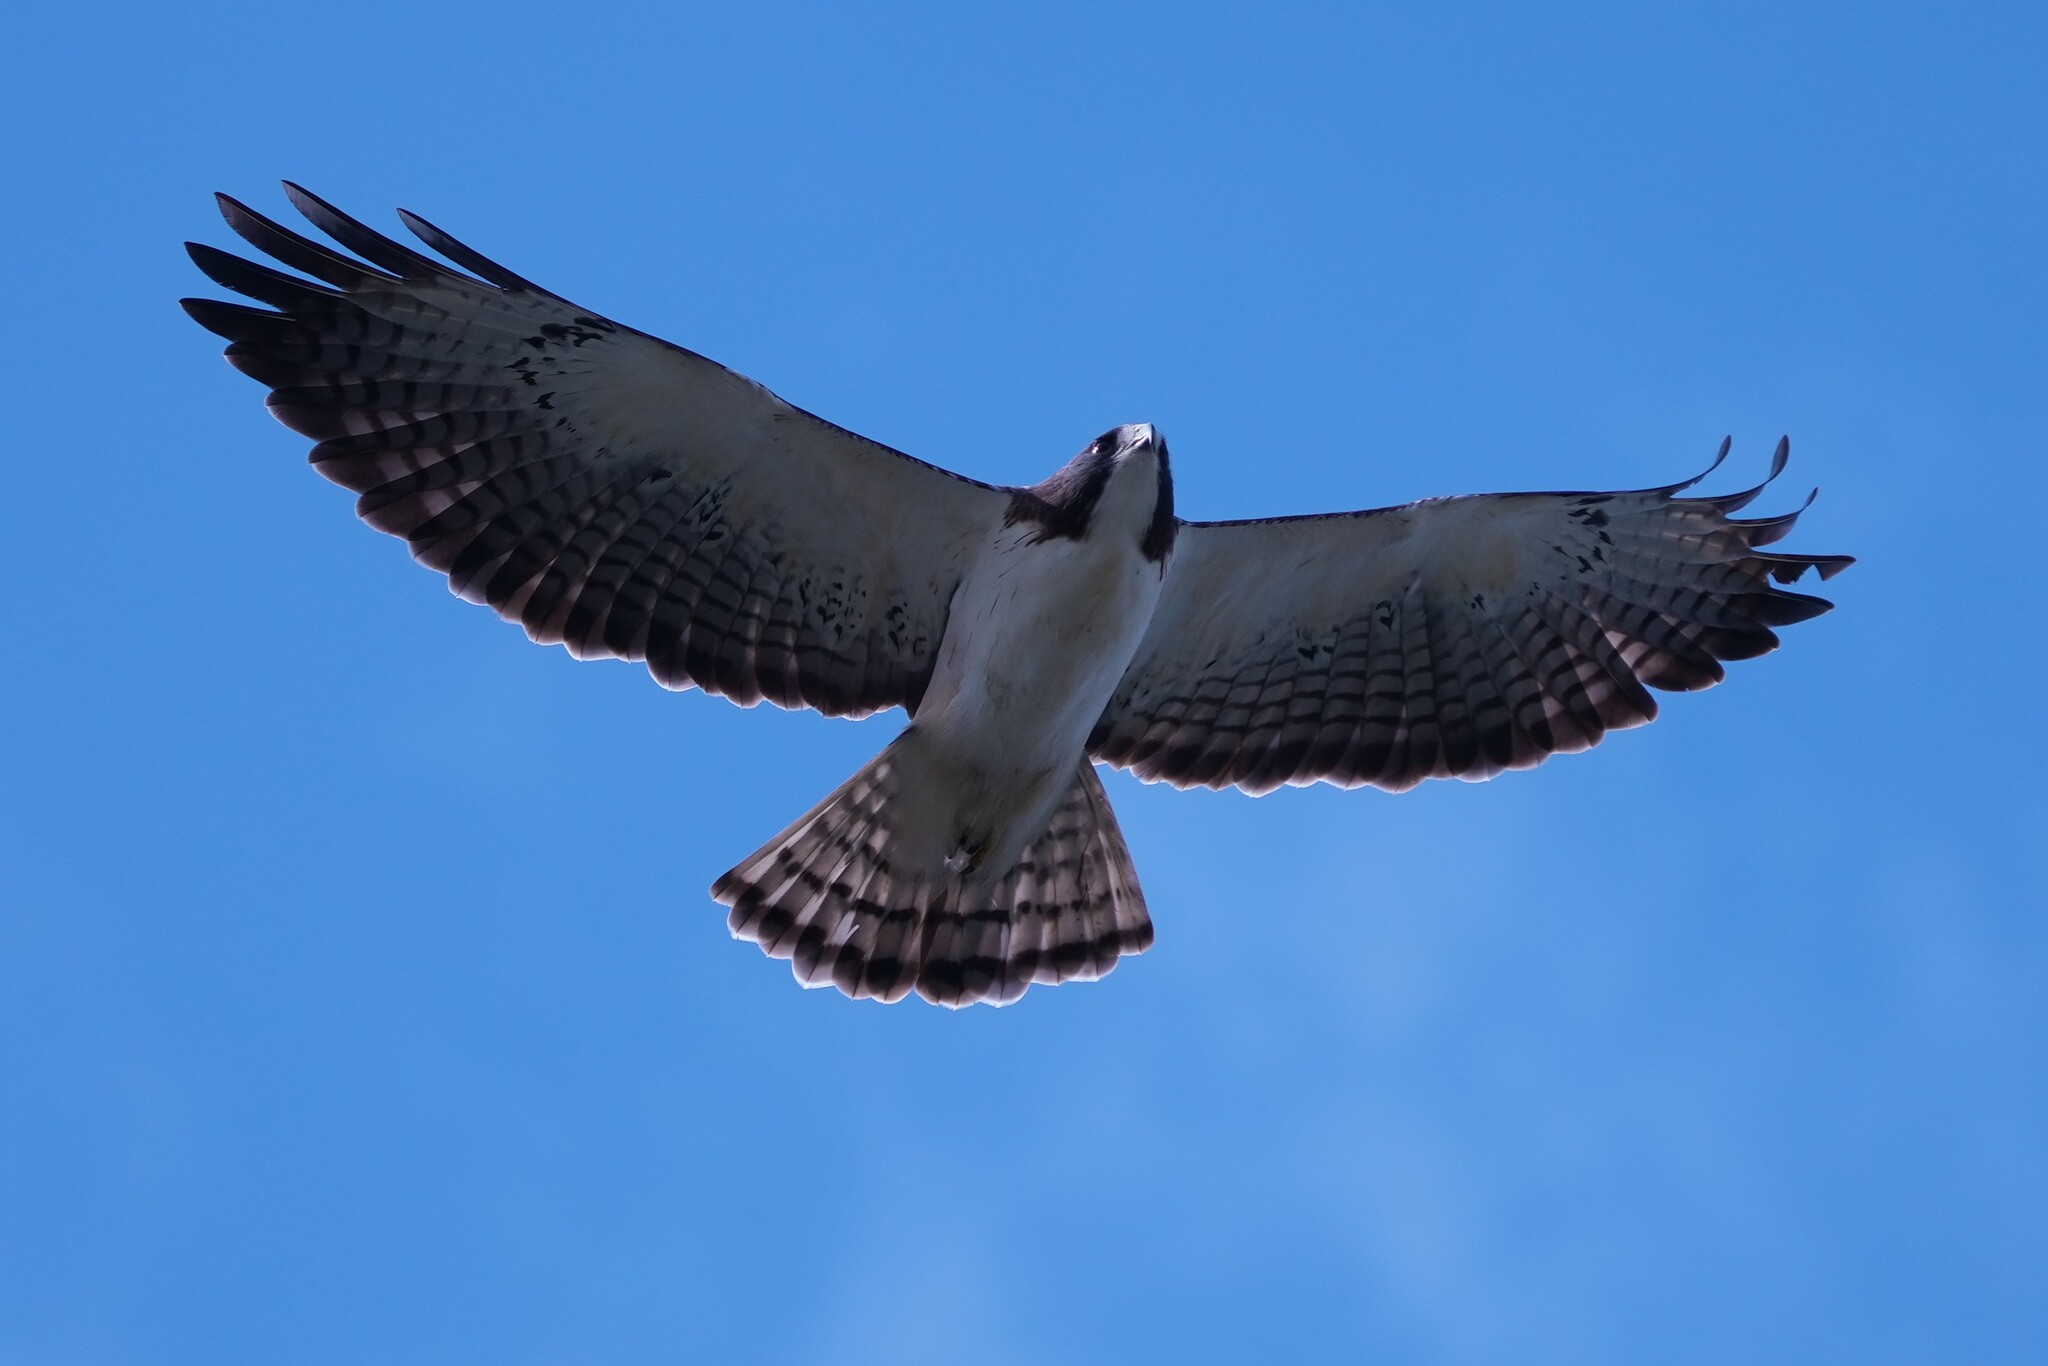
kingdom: Animalia
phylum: Chordata
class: Aves
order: Accipitriformes
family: Accipitridae
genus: Buteo
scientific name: Buteo brachyurus
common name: Short-tailed hawk
